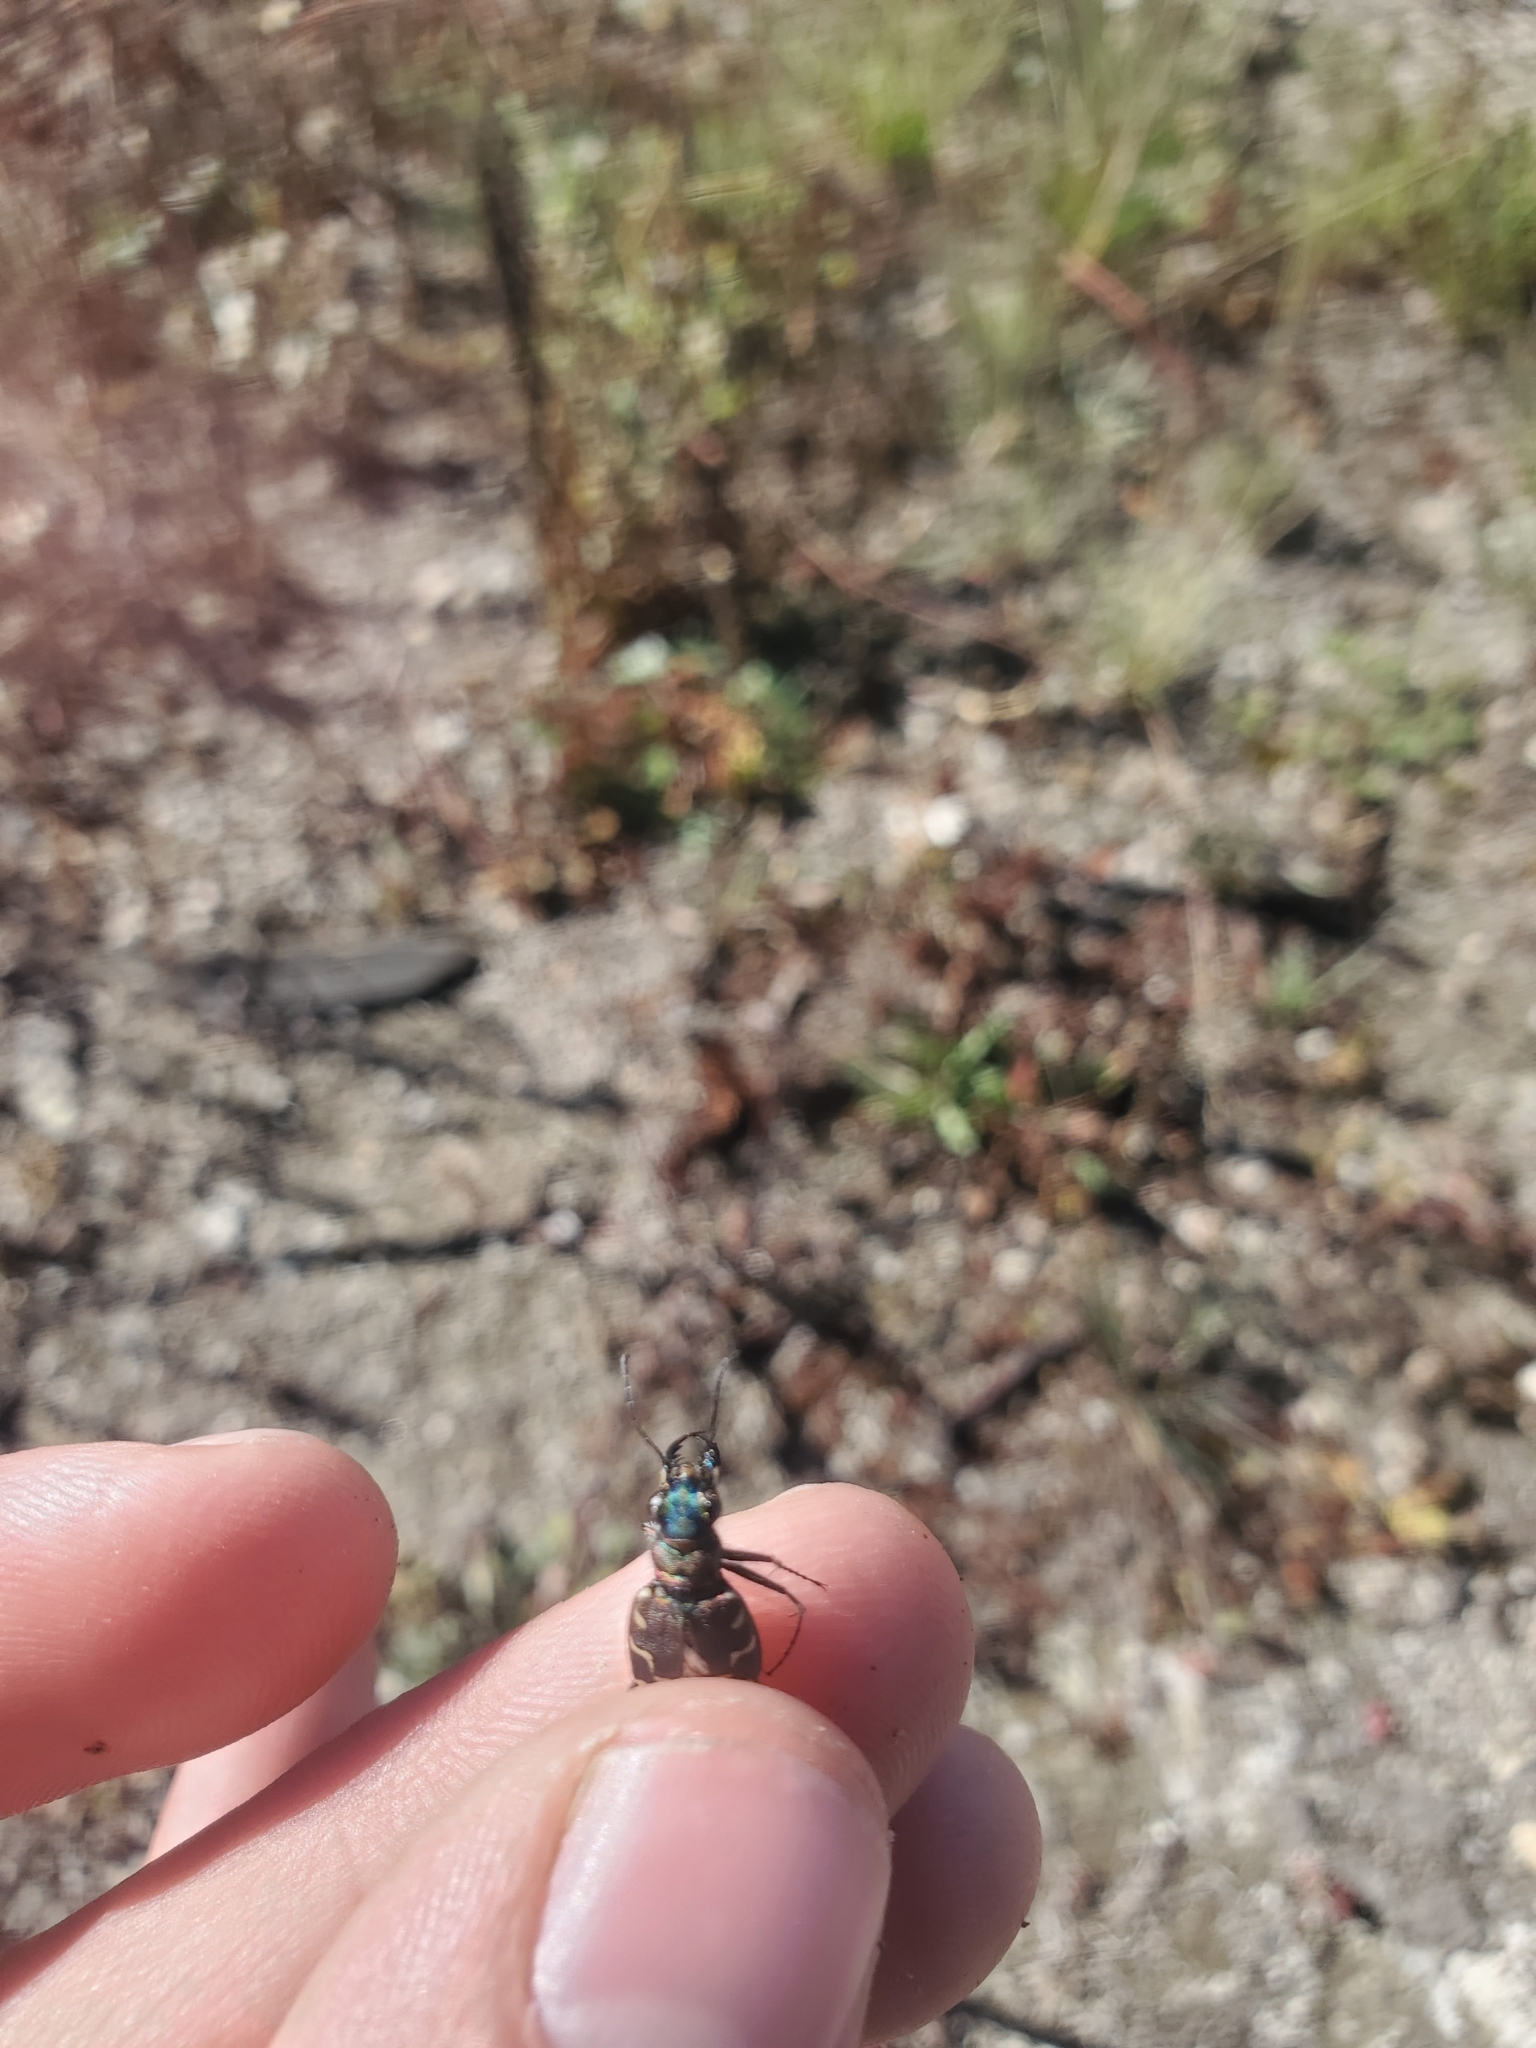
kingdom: Animalia
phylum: Arthropoda
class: Insecta
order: Coleoptera
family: Carabidae
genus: Cicindela
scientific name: Cicindela oregona
